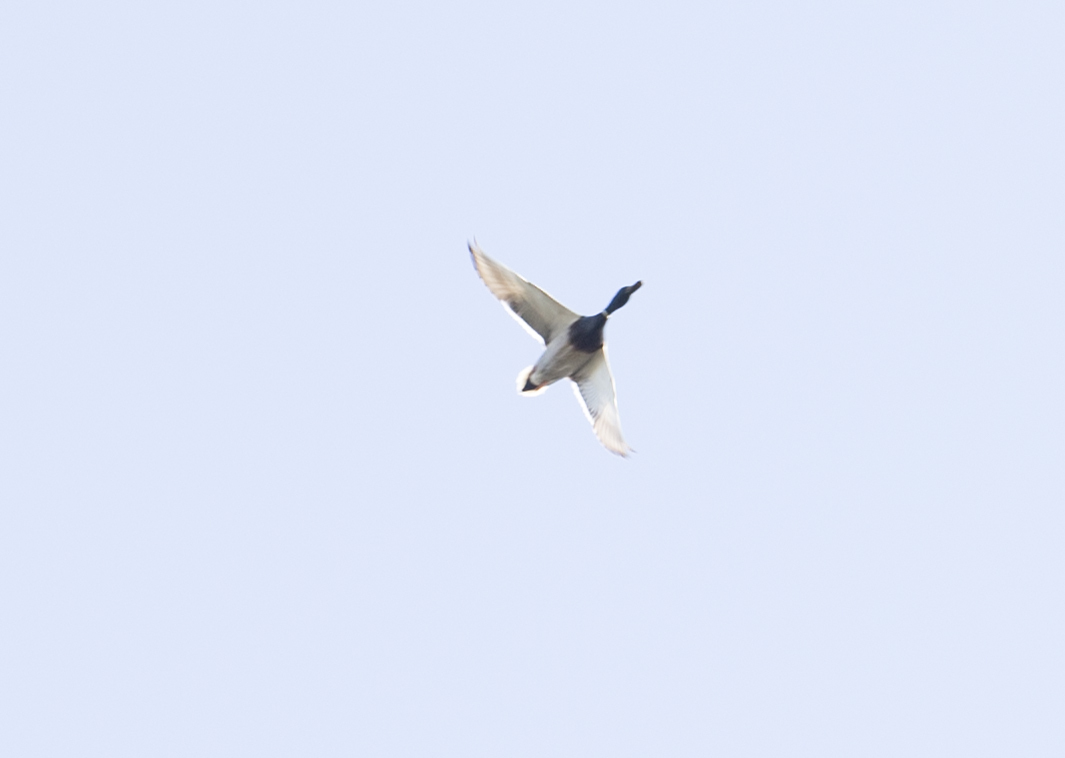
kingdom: Animalia
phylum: Chordata
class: Aves
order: Anseriformes
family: Anatidae
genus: Anas
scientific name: Anas platyrhynchos
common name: Mallard
